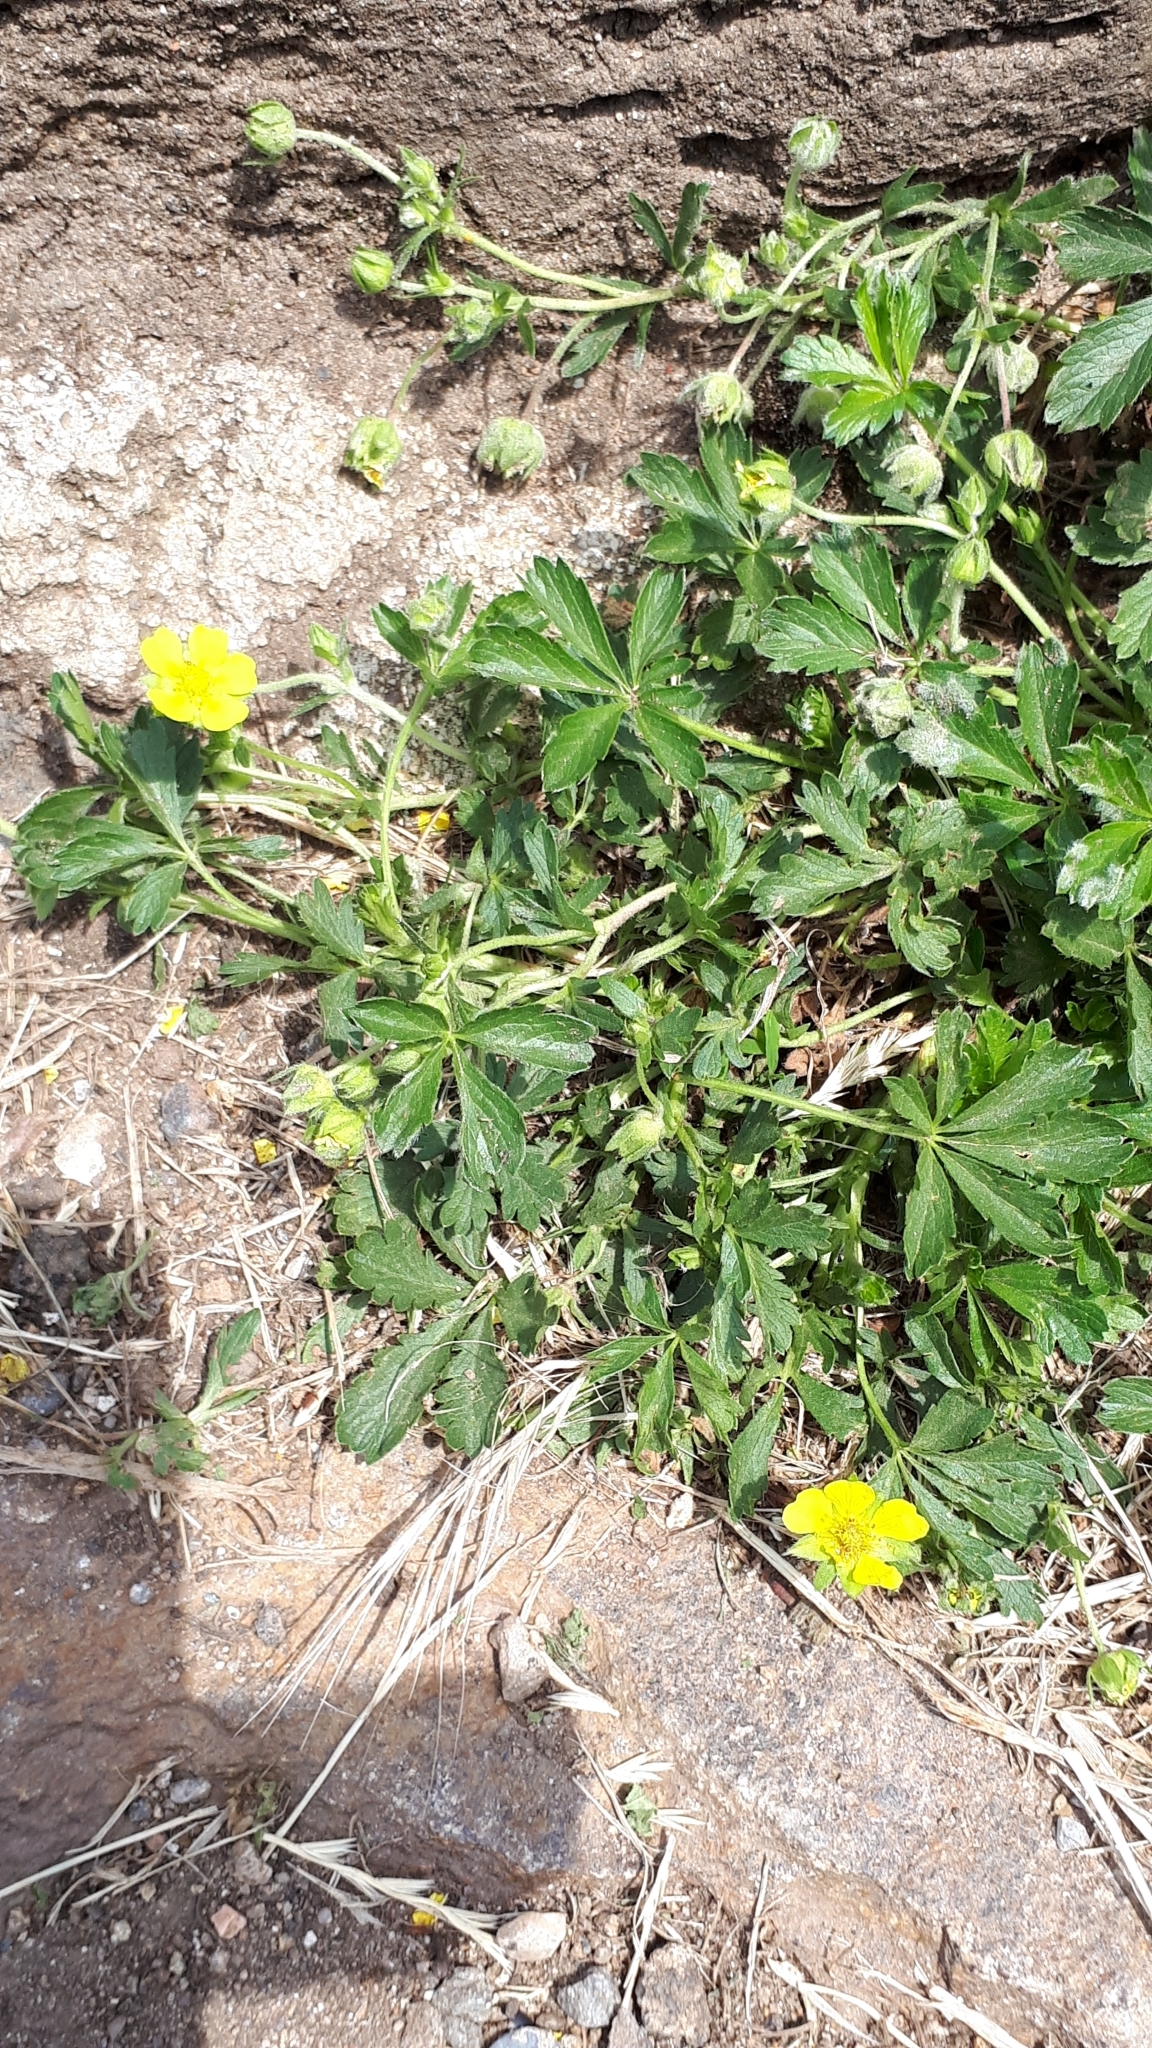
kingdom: Plantae
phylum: Tracheophyta
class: Magnoliopsida
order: Rosales
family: Rosaceae
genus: Potentilla
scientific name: Potentilla reptans
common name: Creeping cinquefoil
